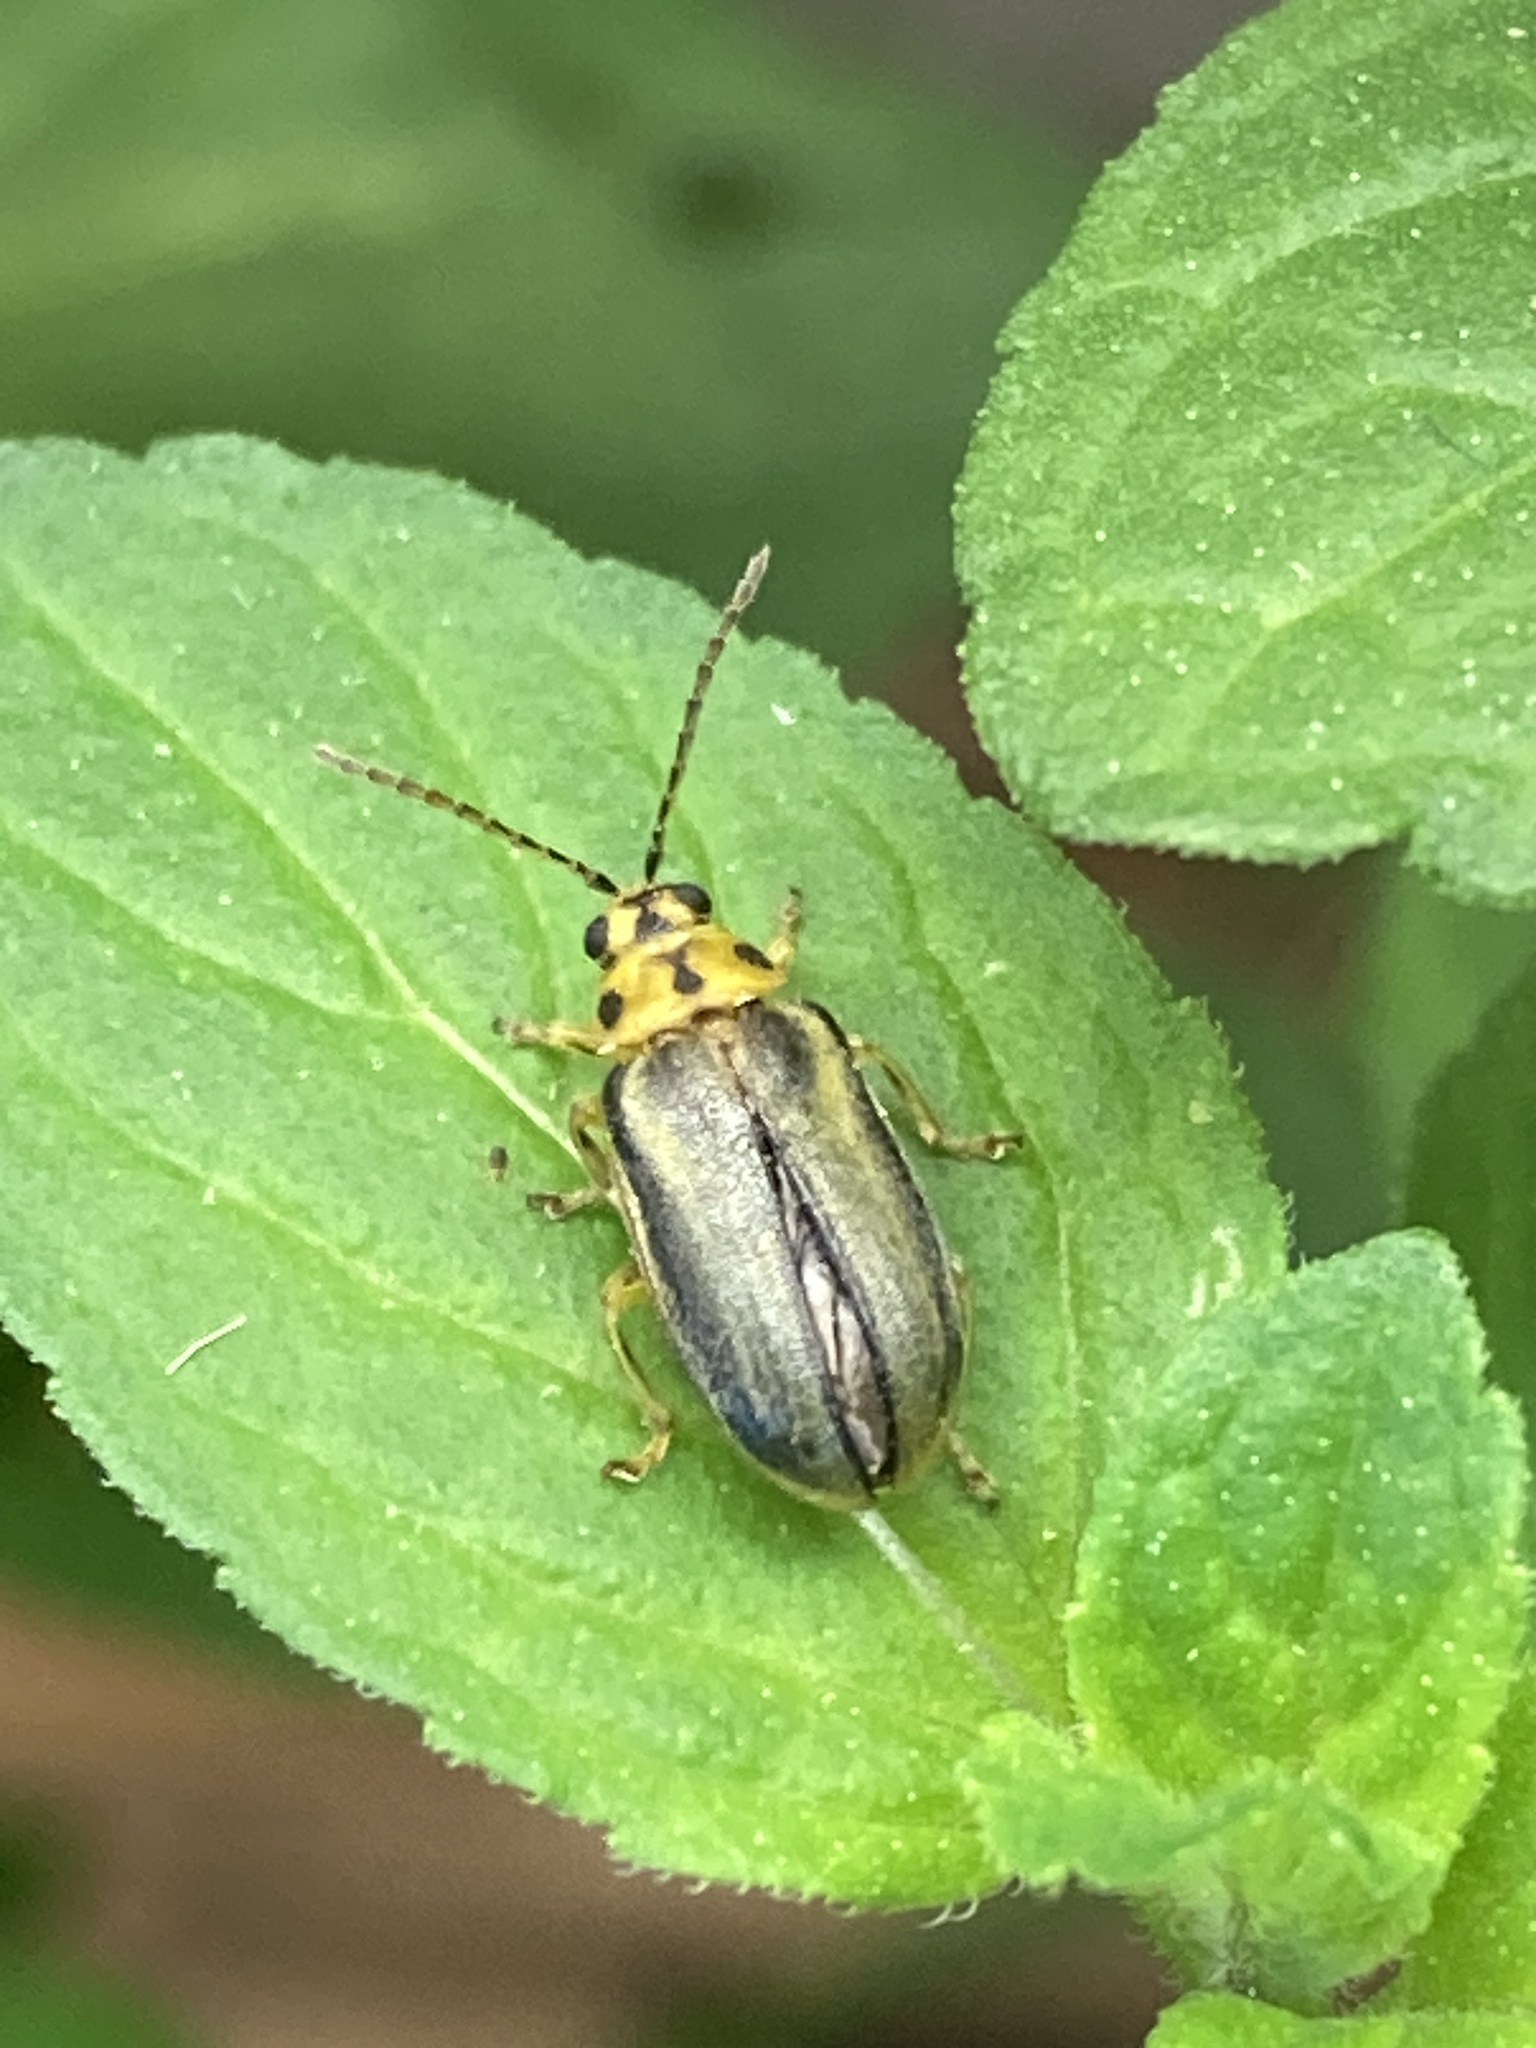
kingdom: Animalia
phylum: Arthropoda
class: Insecta
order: Coleoptera
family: Chrysomelidae
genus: Xanthogaleruca
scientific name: Xanthogaleruca luteola
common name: Elm leaf beetle
